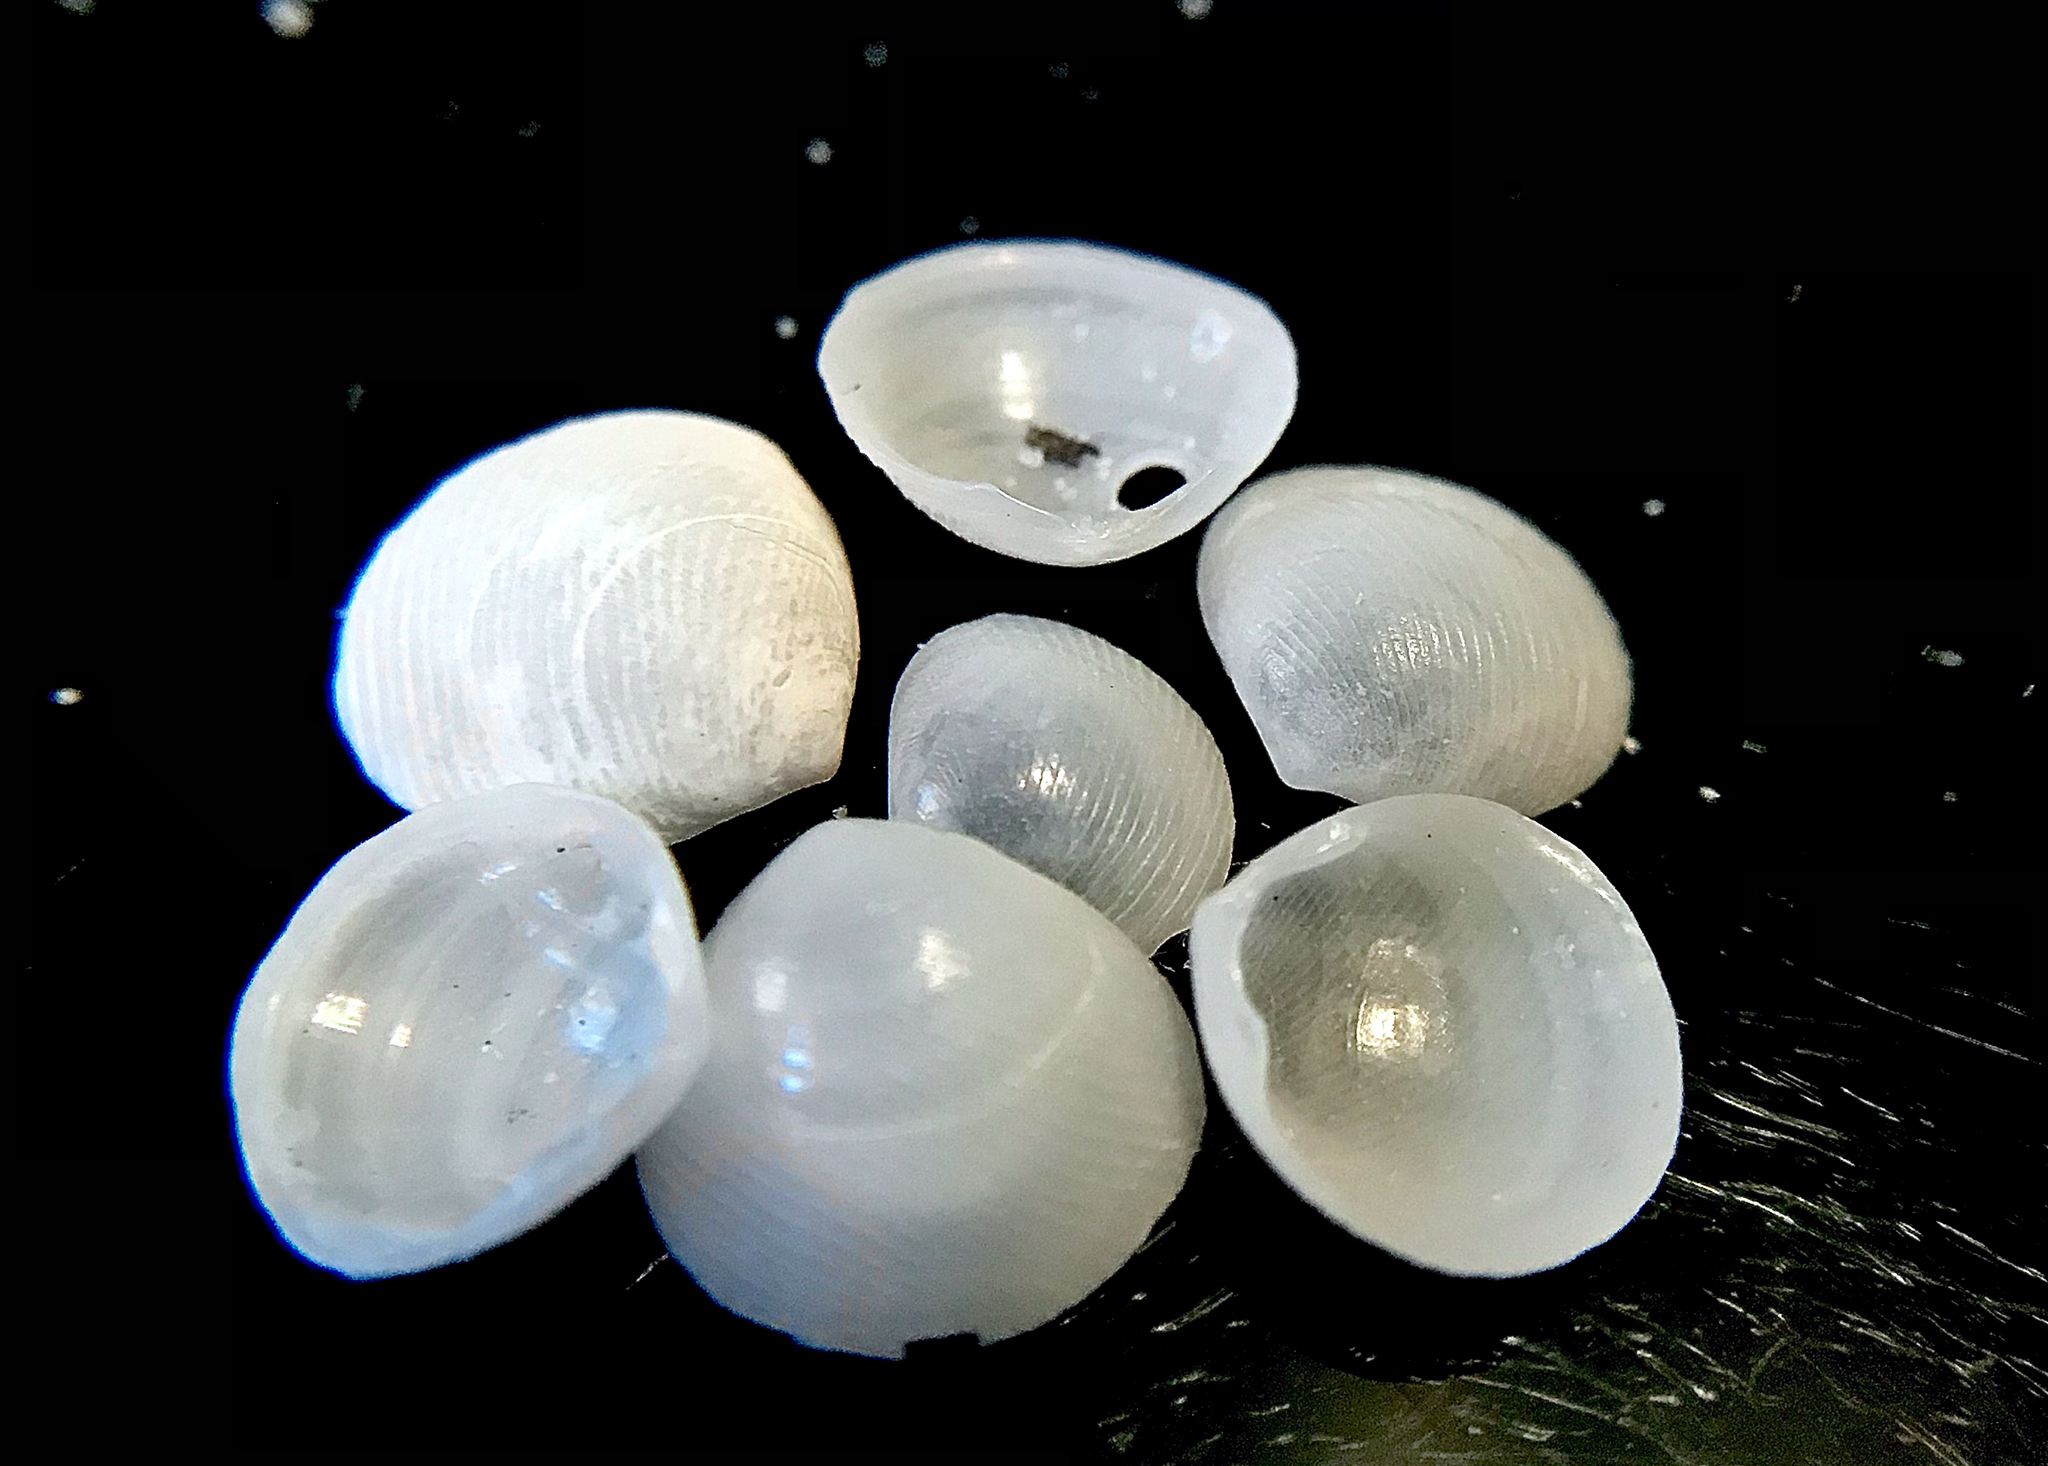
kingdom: Animalia
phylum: Mollusca
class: Bivalvia
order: Cardiida
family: Tellinidae
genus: Strigilla
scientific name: Strigilla surinamensis
